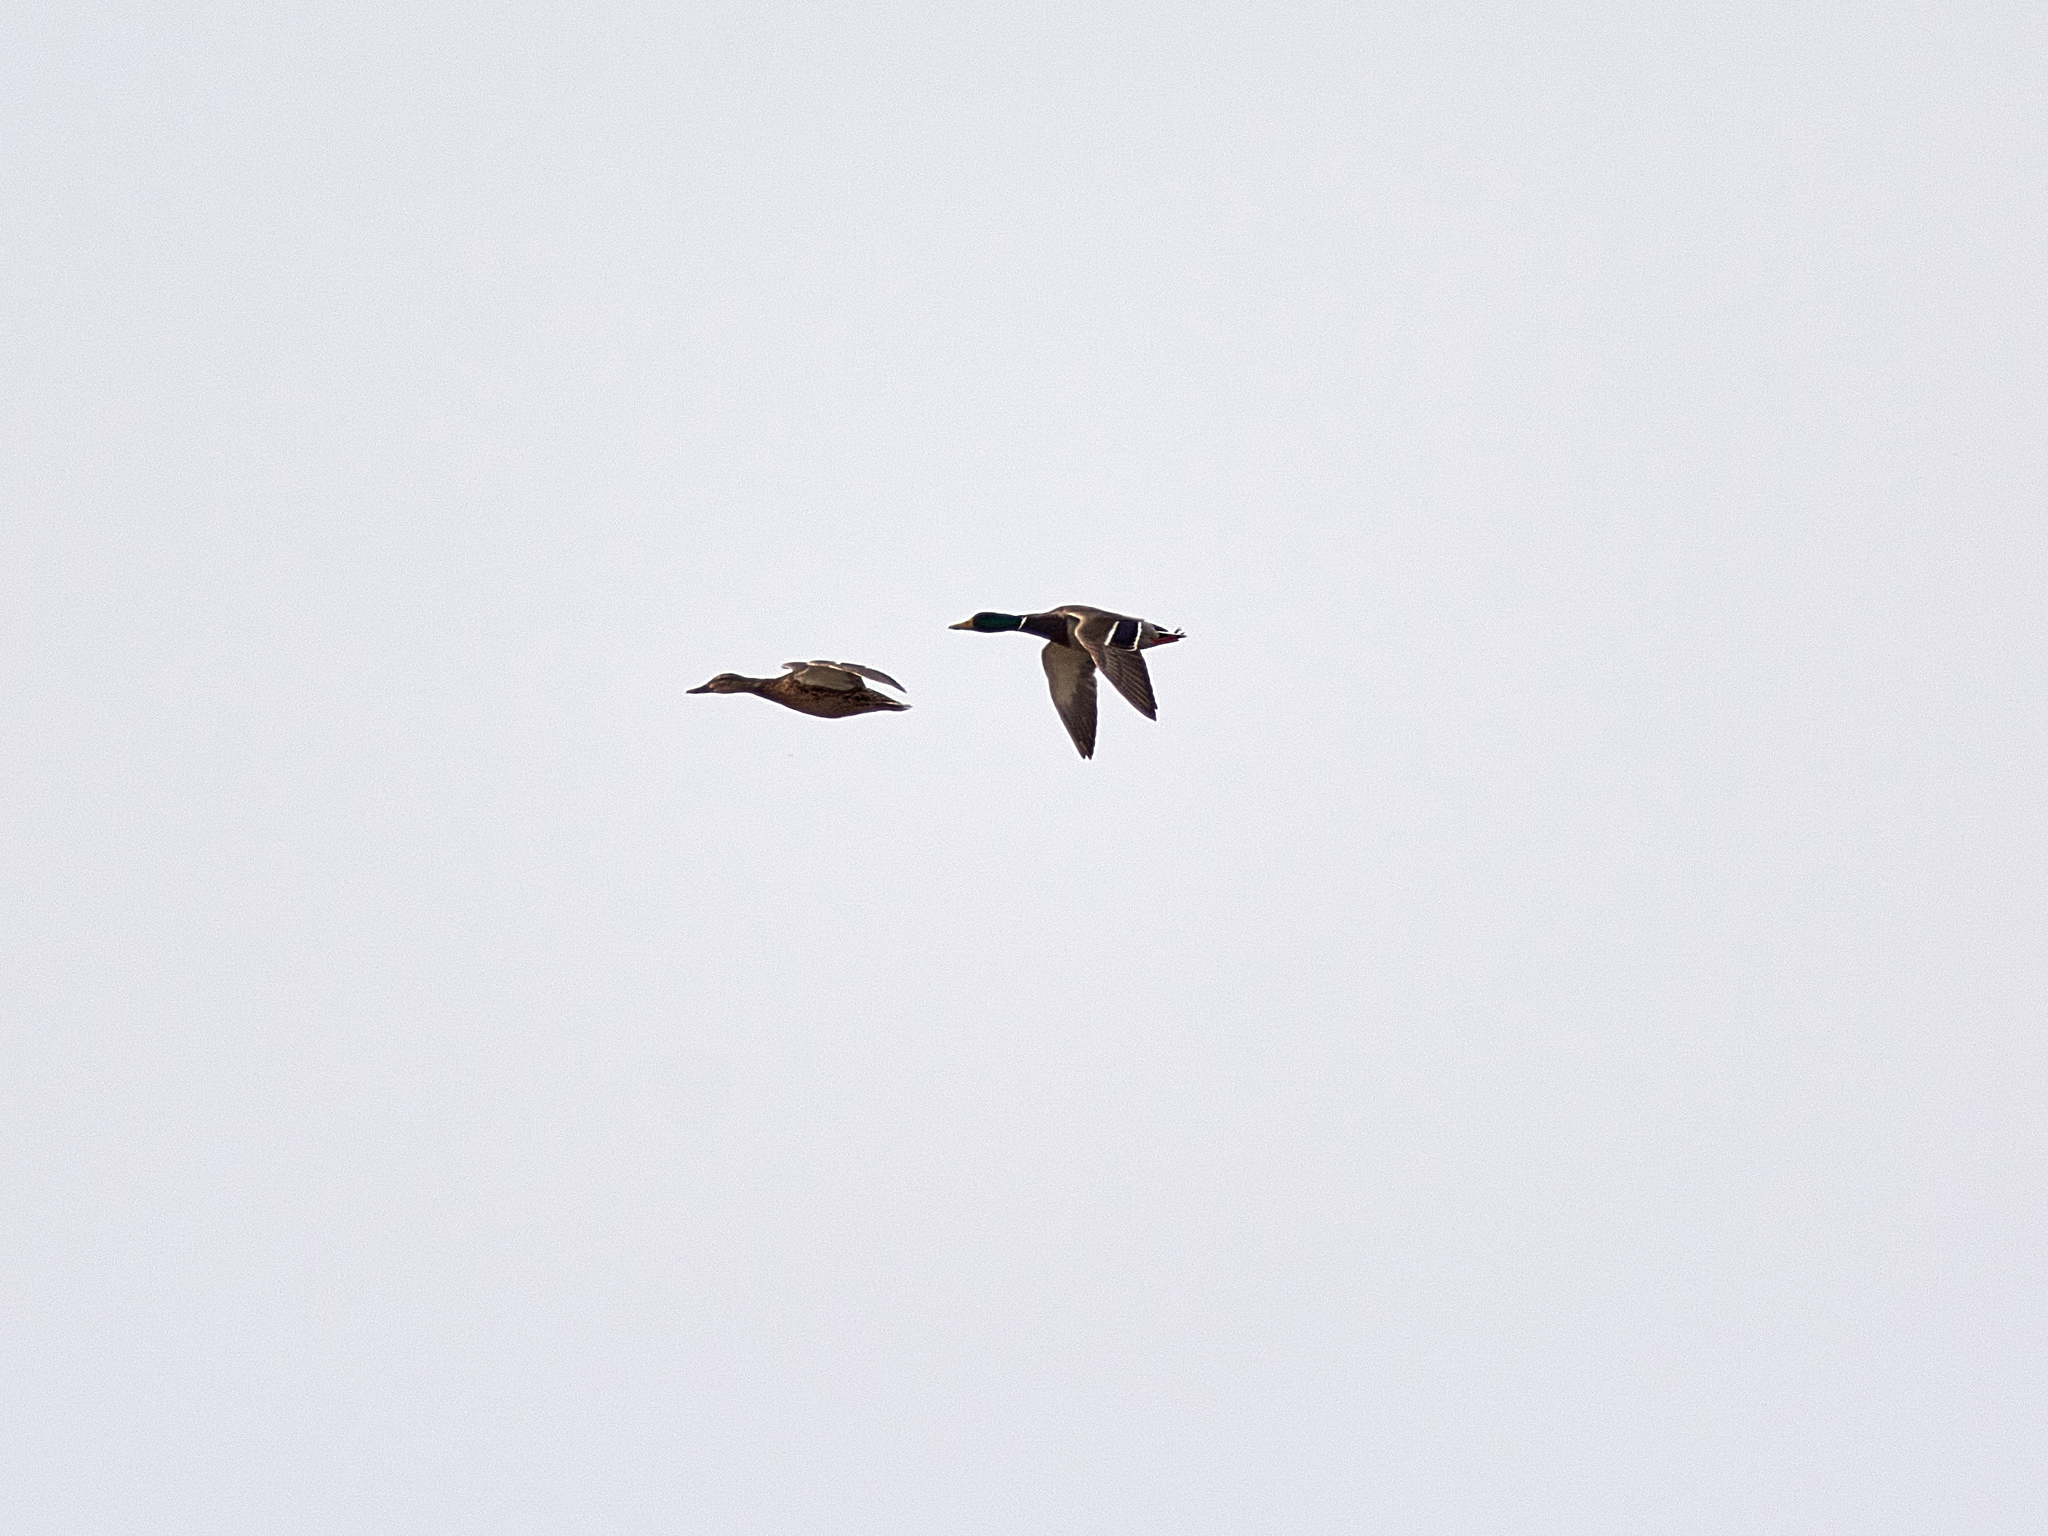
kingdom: Animalia
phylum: Chordata
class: Aves
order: Anseriformes
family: Anatidae
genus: Anas
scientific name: Anas platyrhynchos
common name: Mallard
